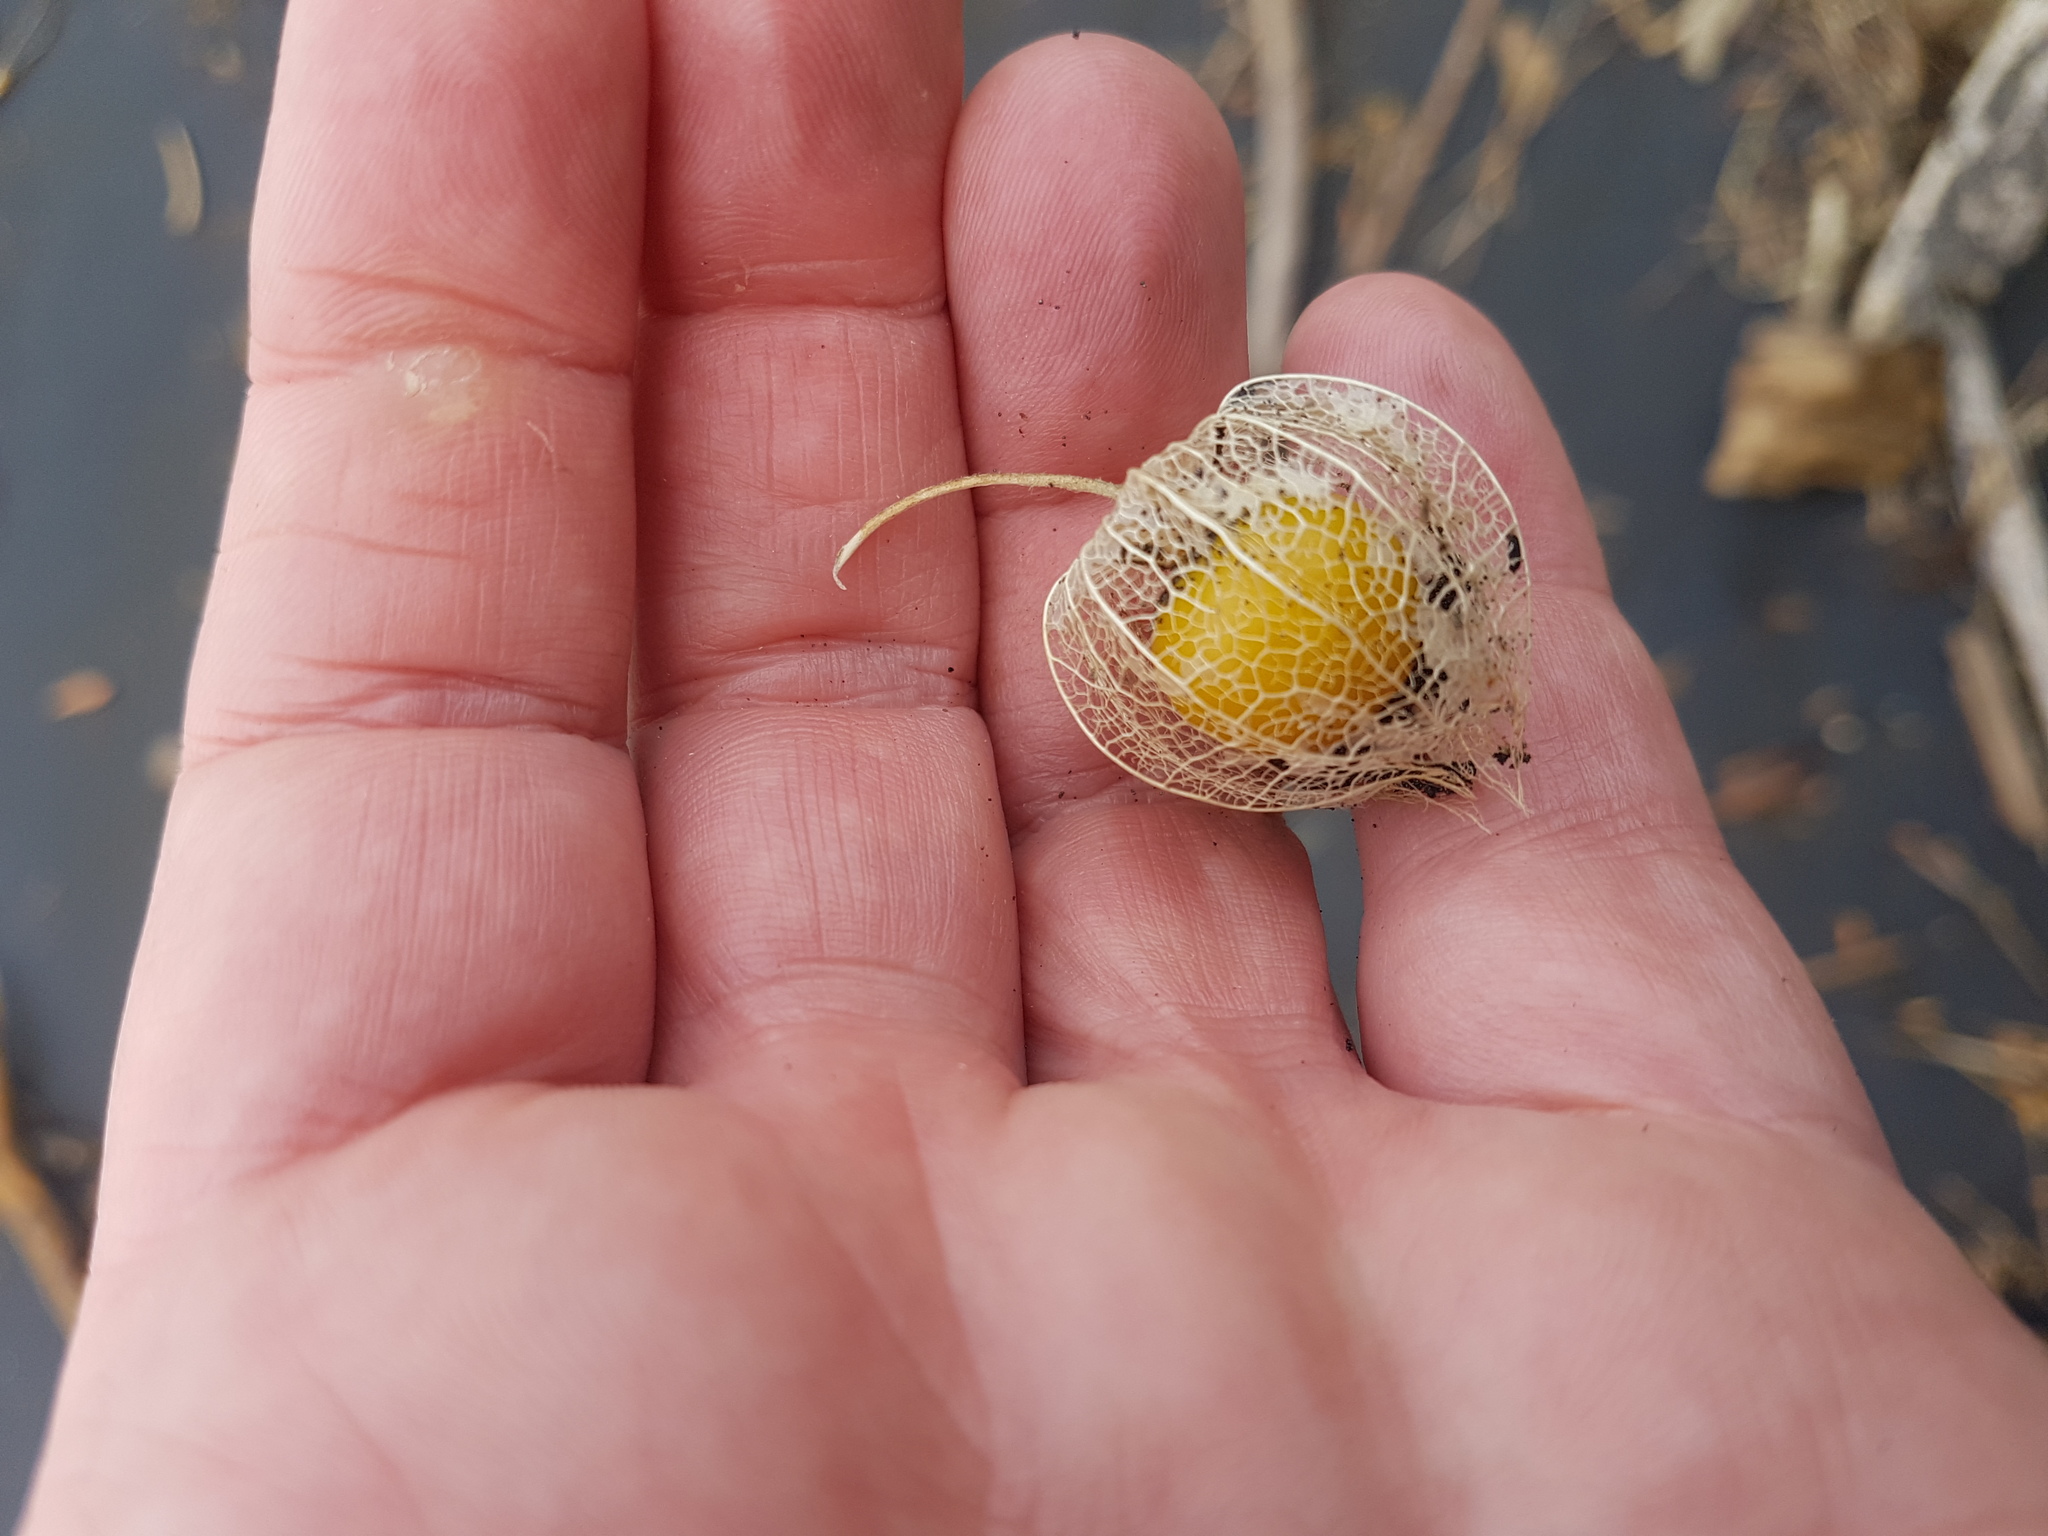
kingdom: Plantae
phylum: Tracheophyta
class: Magnoliopsida
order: Solanales
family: Solanaceae
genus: Physalis
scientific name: Physalis peruviana
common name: Cape-gooseberry
